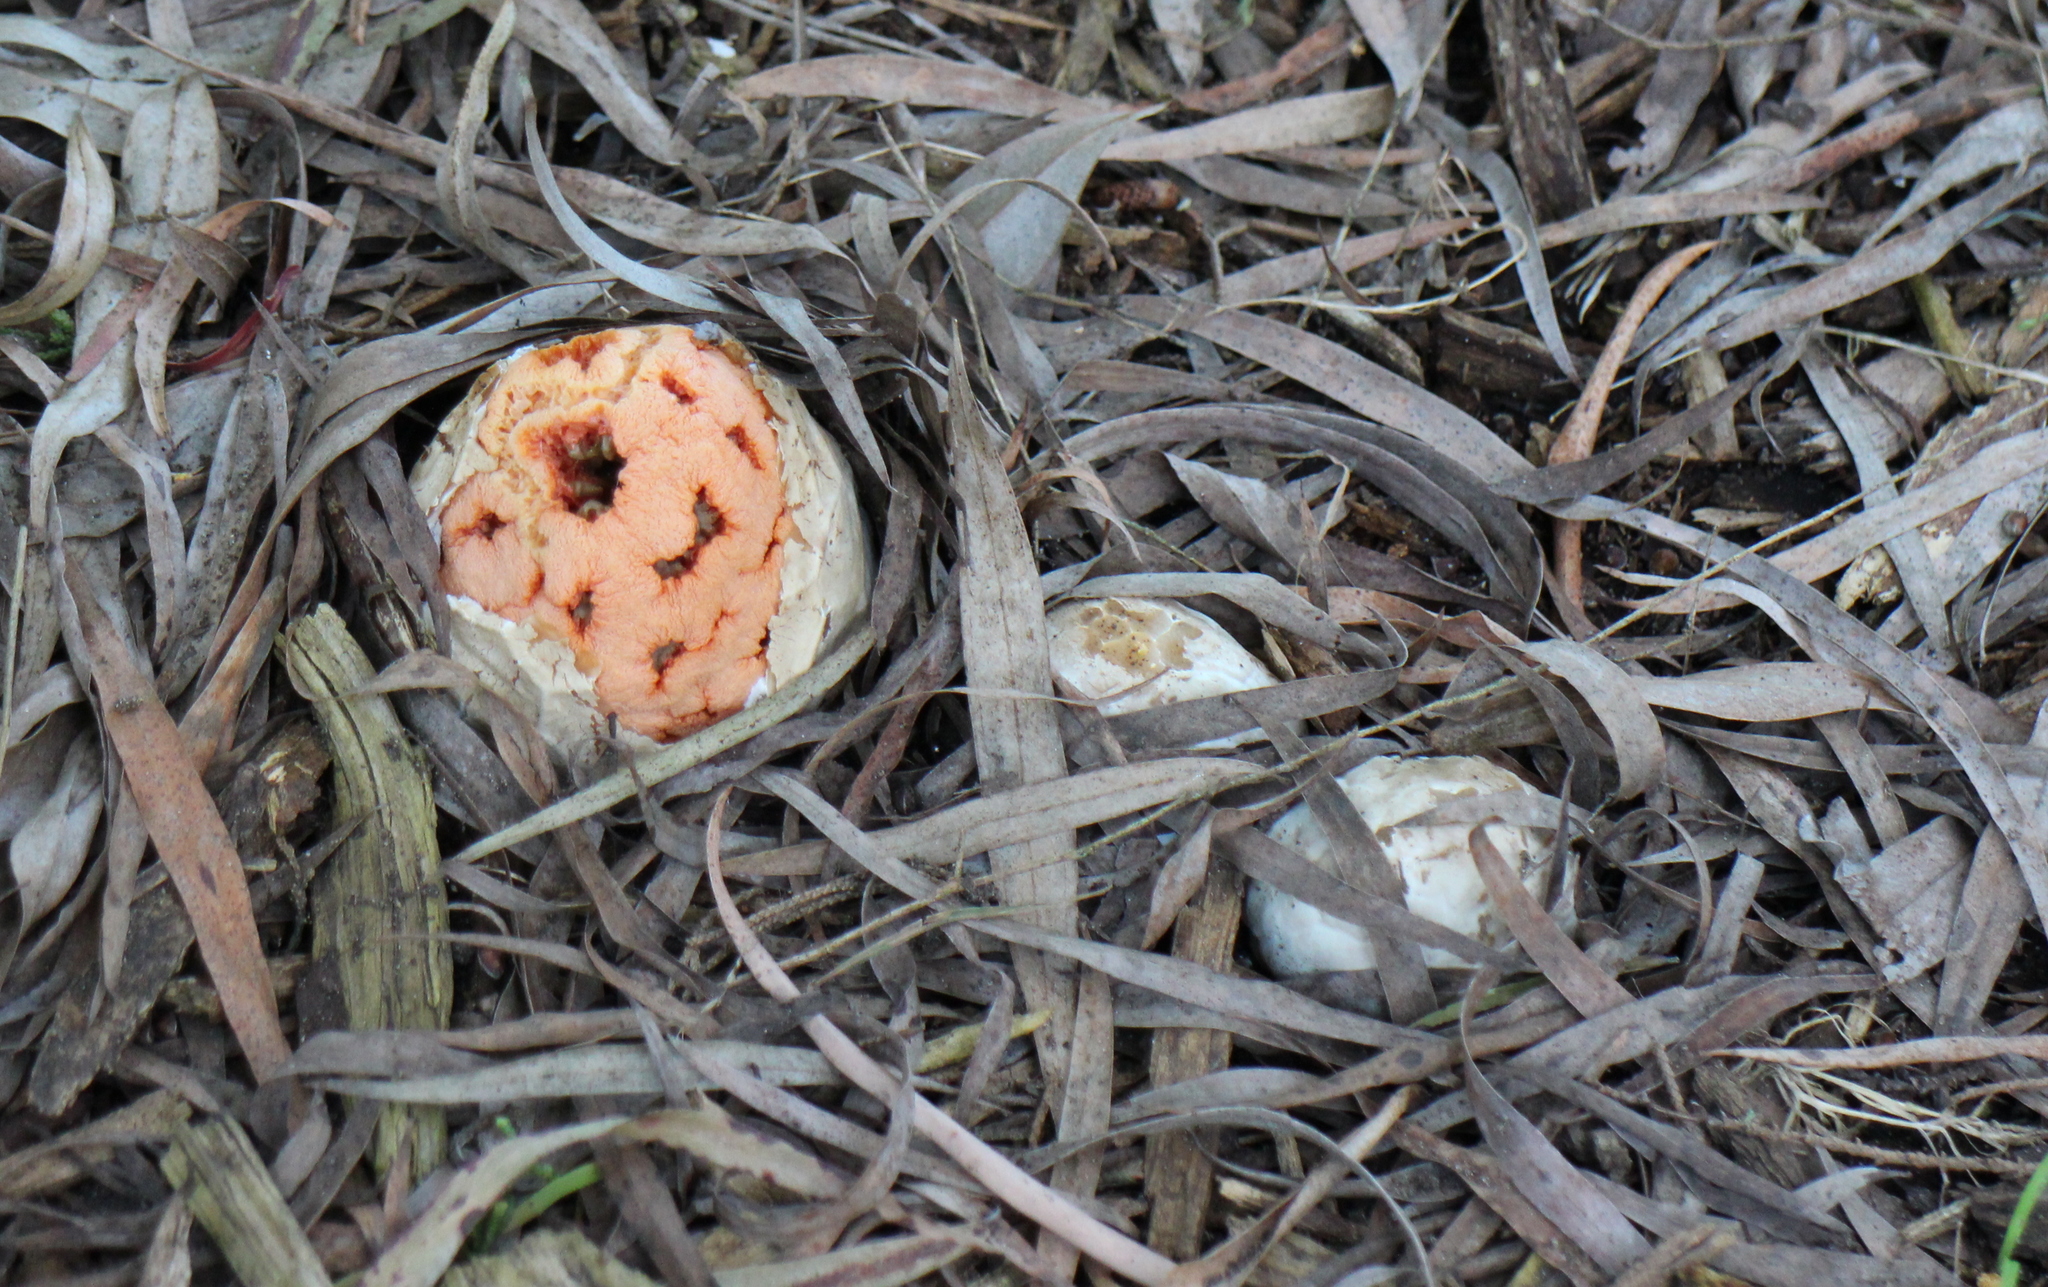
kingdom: Fungi
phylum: Basidiomycota
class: Agaricomycetes
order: Phallales
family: Phallaceae
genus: Clathrus
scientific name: Clathrus ruber
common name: Red cage
